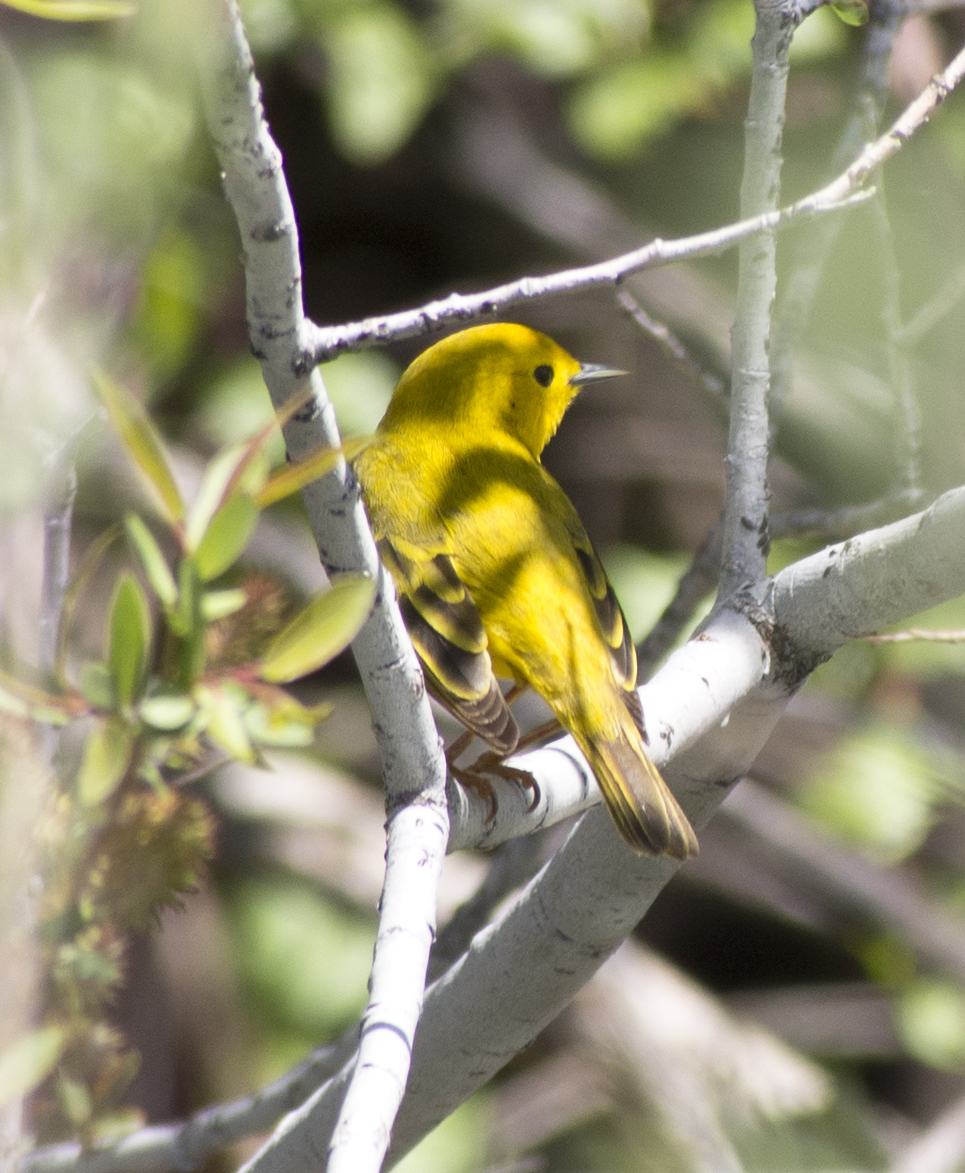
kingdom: Animalia
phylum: Chordata
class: Aves
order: Passeriformes
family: Parulidae
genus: Setophaga
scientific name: Setophaga petechia
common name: Yellow warbler
